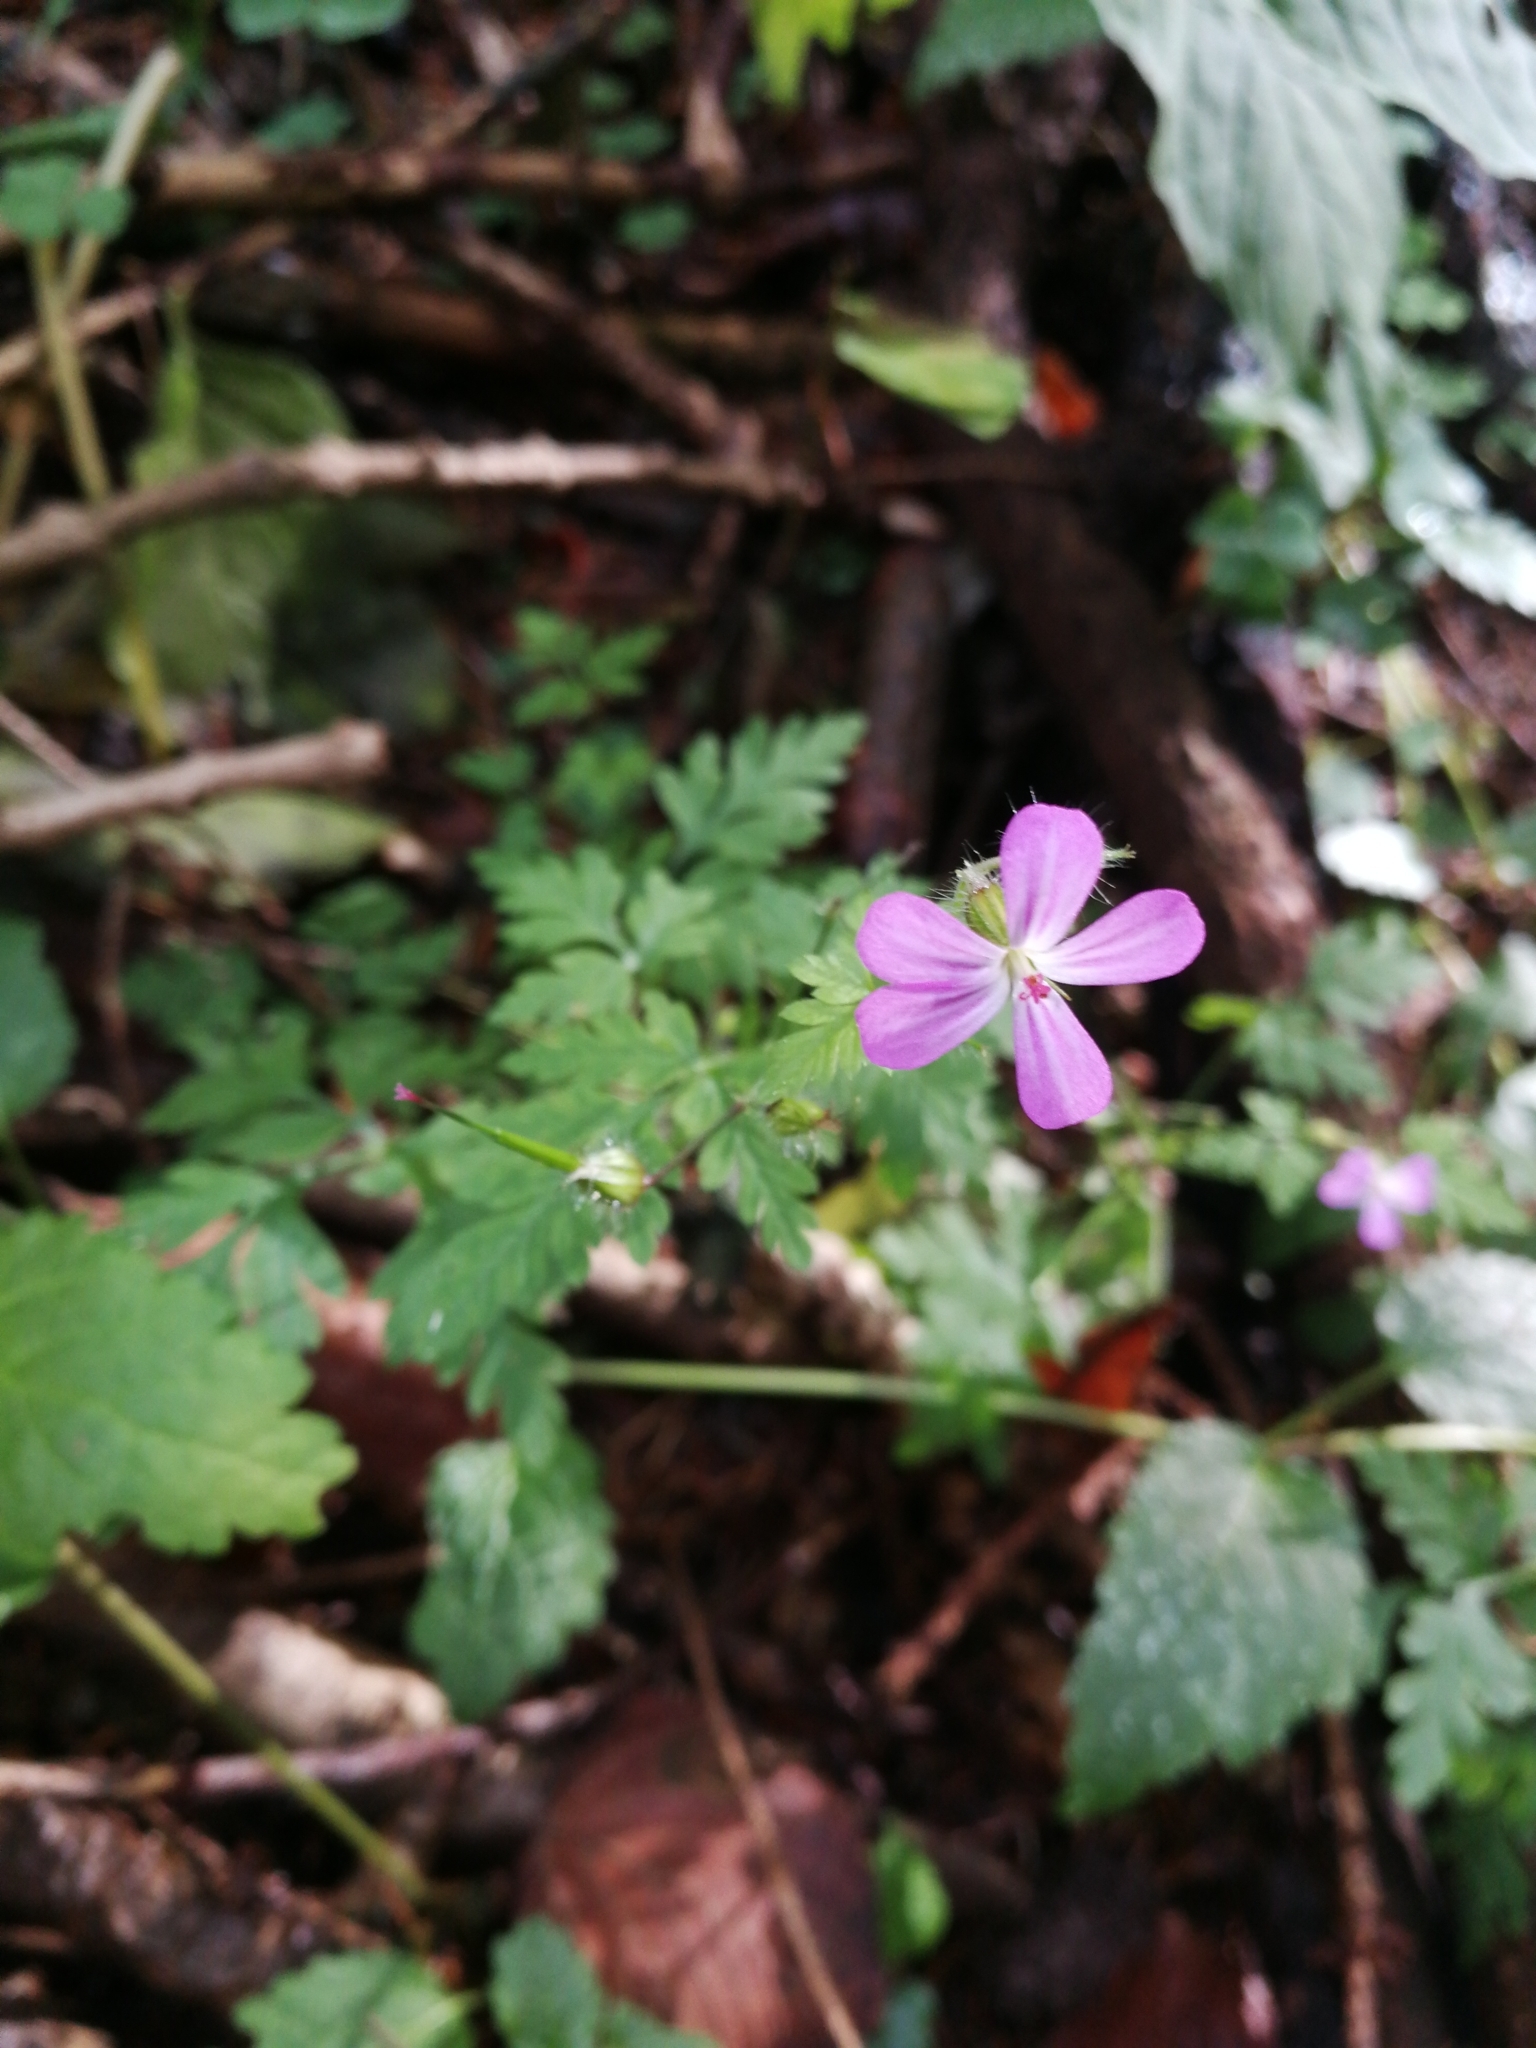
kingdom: Plantae
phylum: Tracheophyta
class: Magnoliopsida
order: Geraniales
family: Geraniaceae
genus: Geranium
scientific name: Geranium robertianum
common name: Herb-robert
